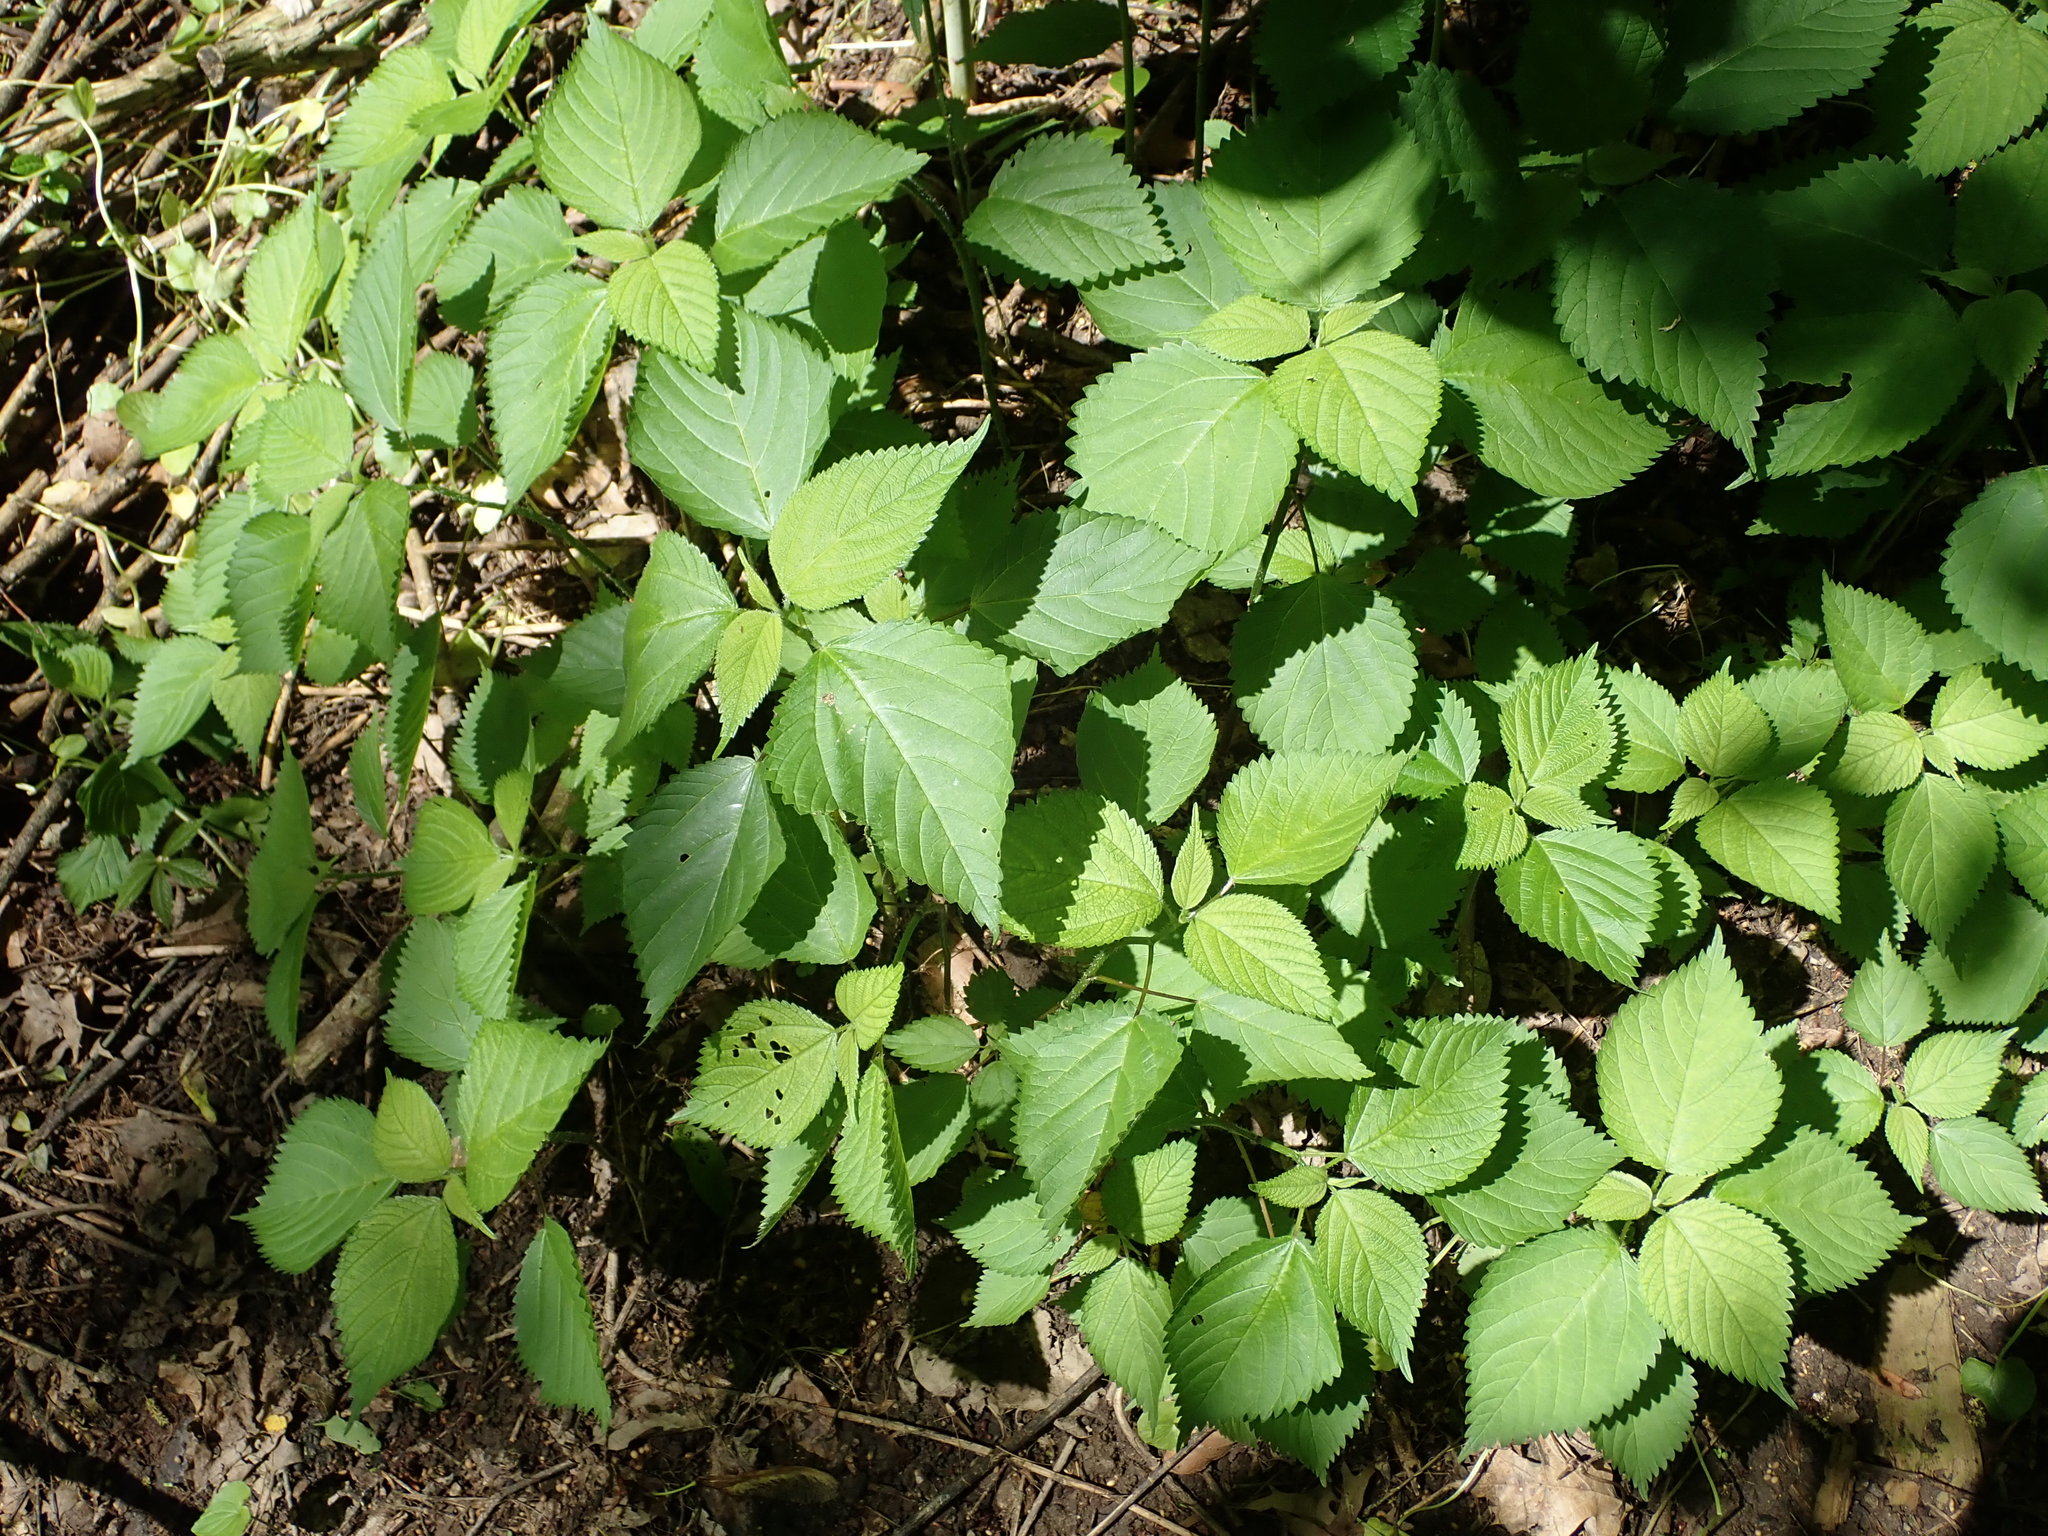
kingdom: Plantae
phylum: Tracheophyta
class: Magnoliopsida
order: Rosales
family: Urticaceae
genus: Laportea
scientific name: Laportea canadensis
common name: Canada nettle
